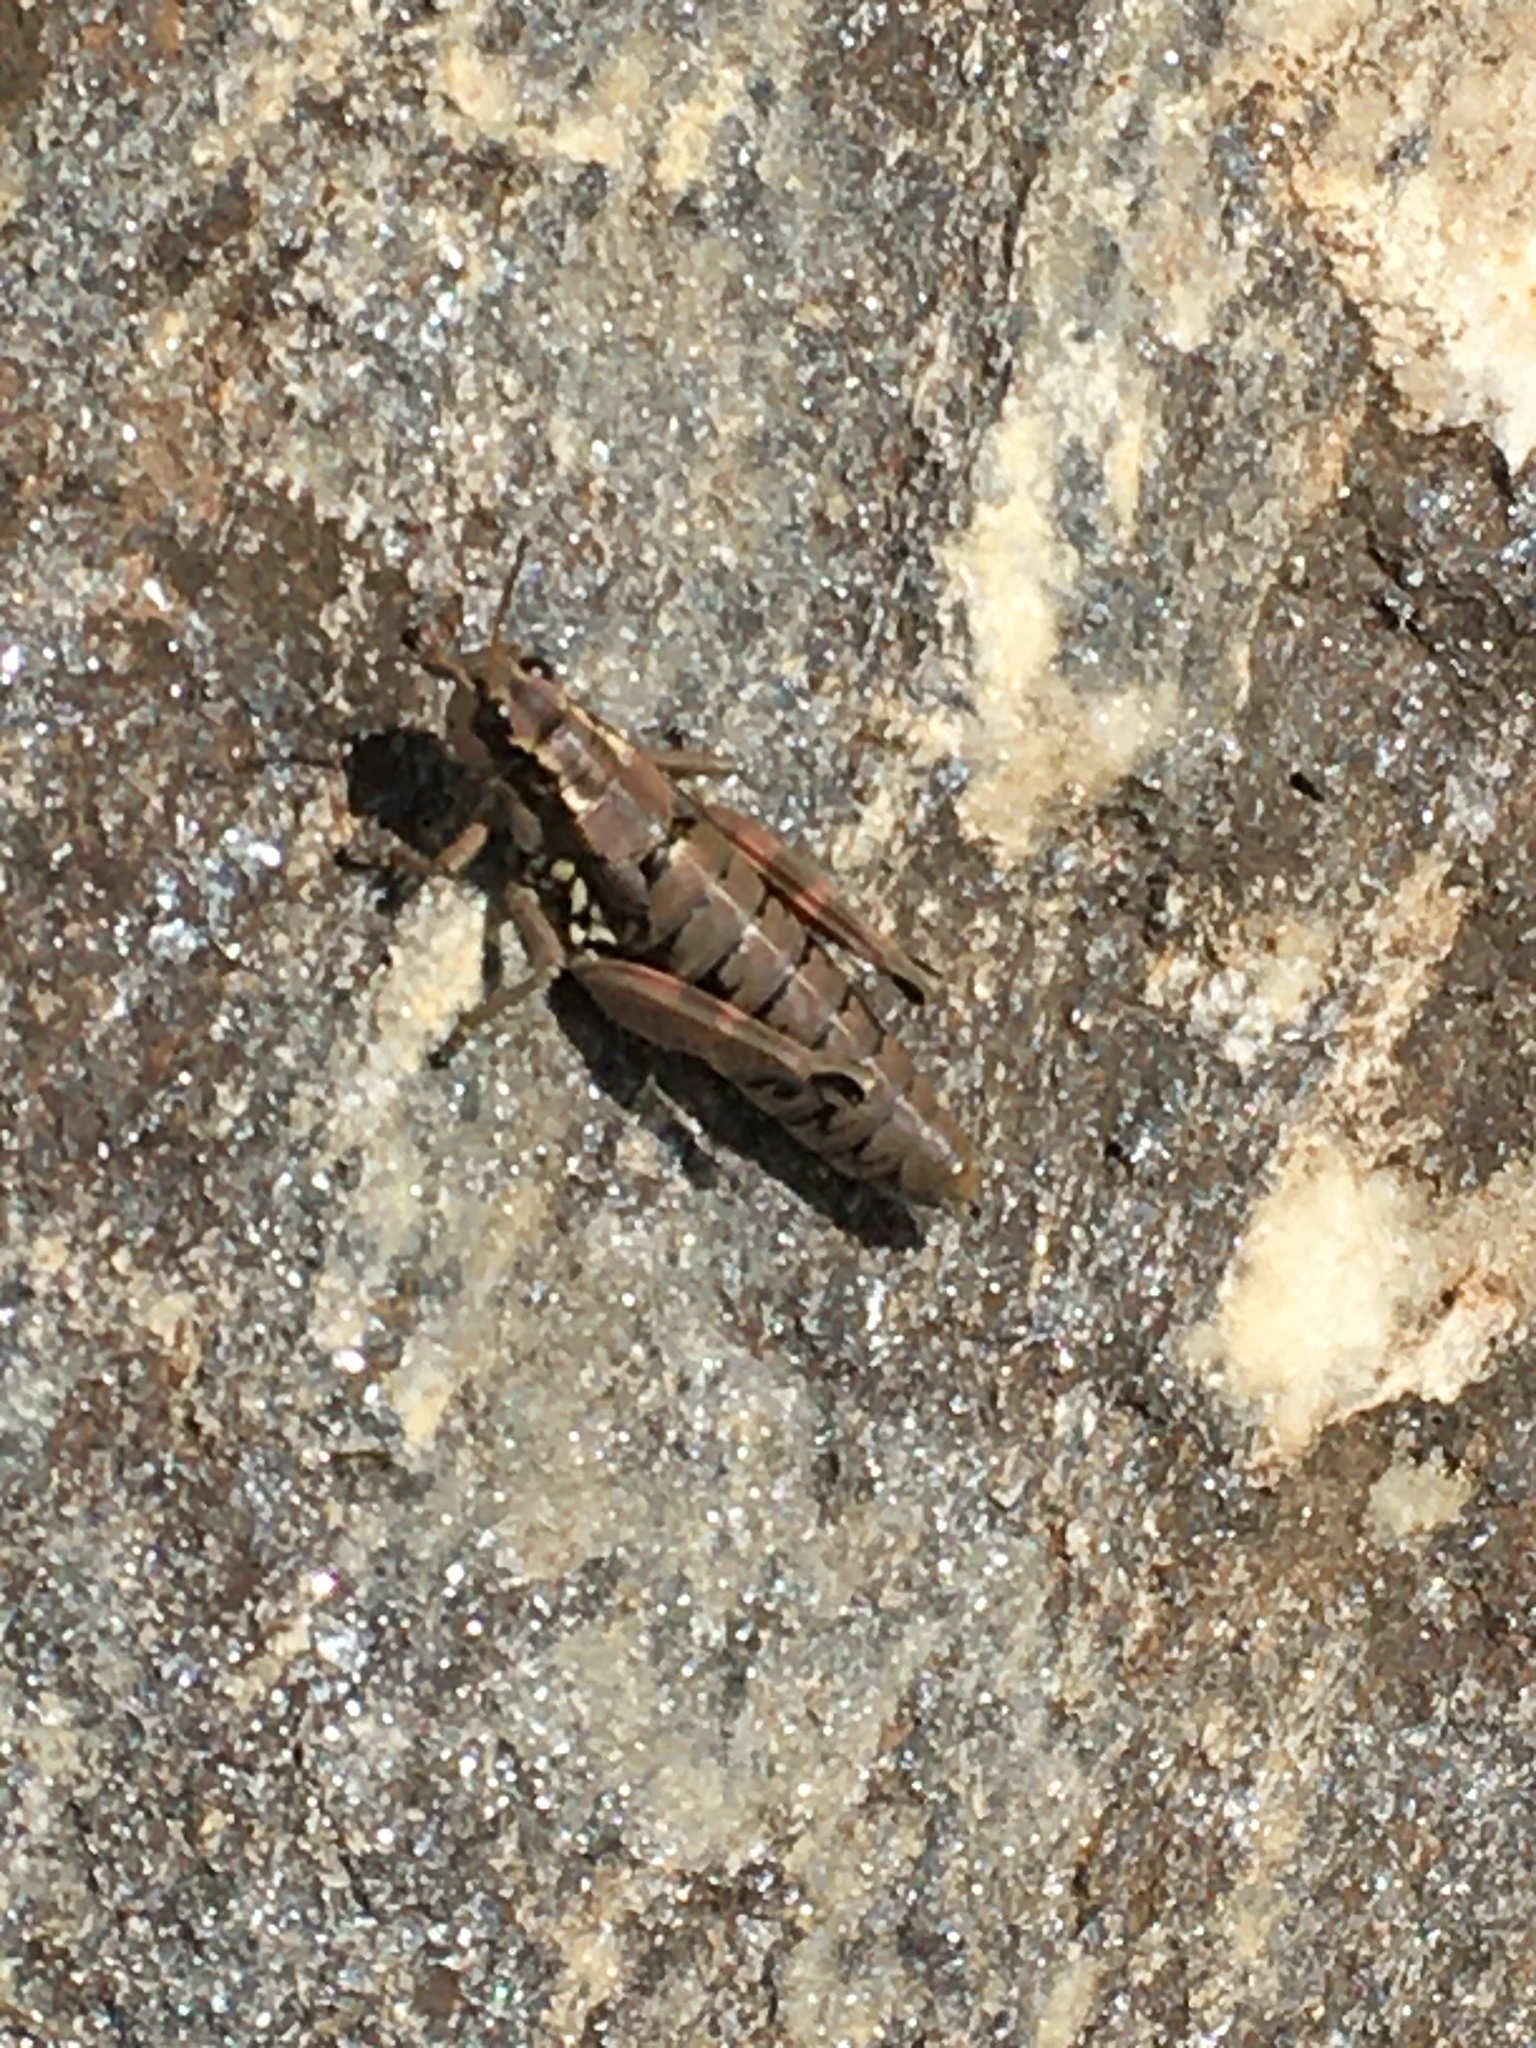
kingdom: Animalia
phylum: Arthropoda
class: Insecta
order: Orthoptera
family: Acrididae
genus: Podisma
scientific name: Podisma pedestris
